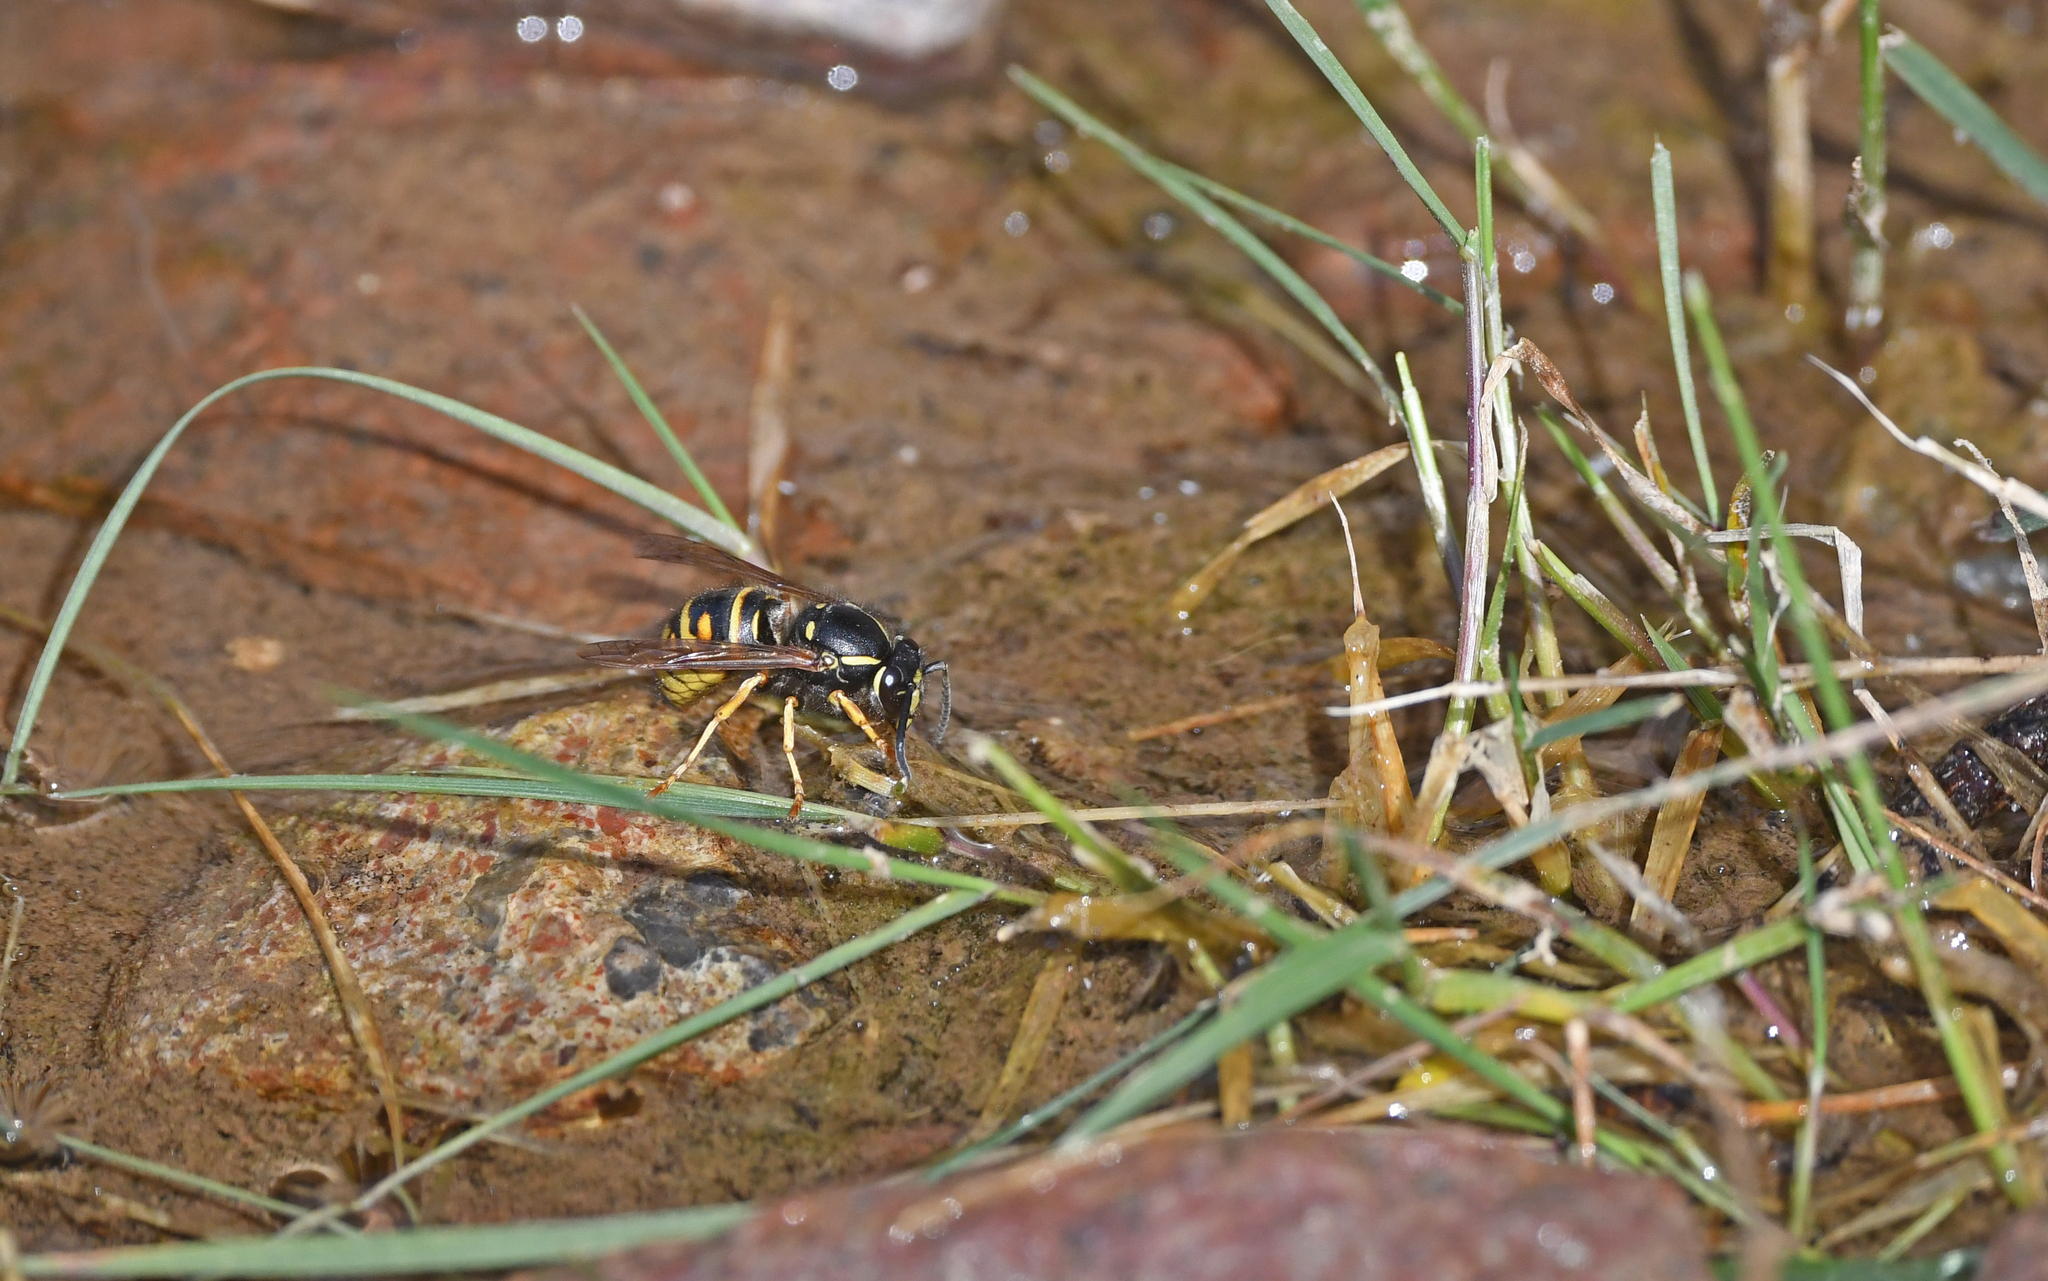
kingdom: Animalia
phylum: Arthropoda
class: Insecta
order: Hymenoptera
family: Vespidae
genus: Vespula
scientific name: Vespula rufa
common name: Red wasp
